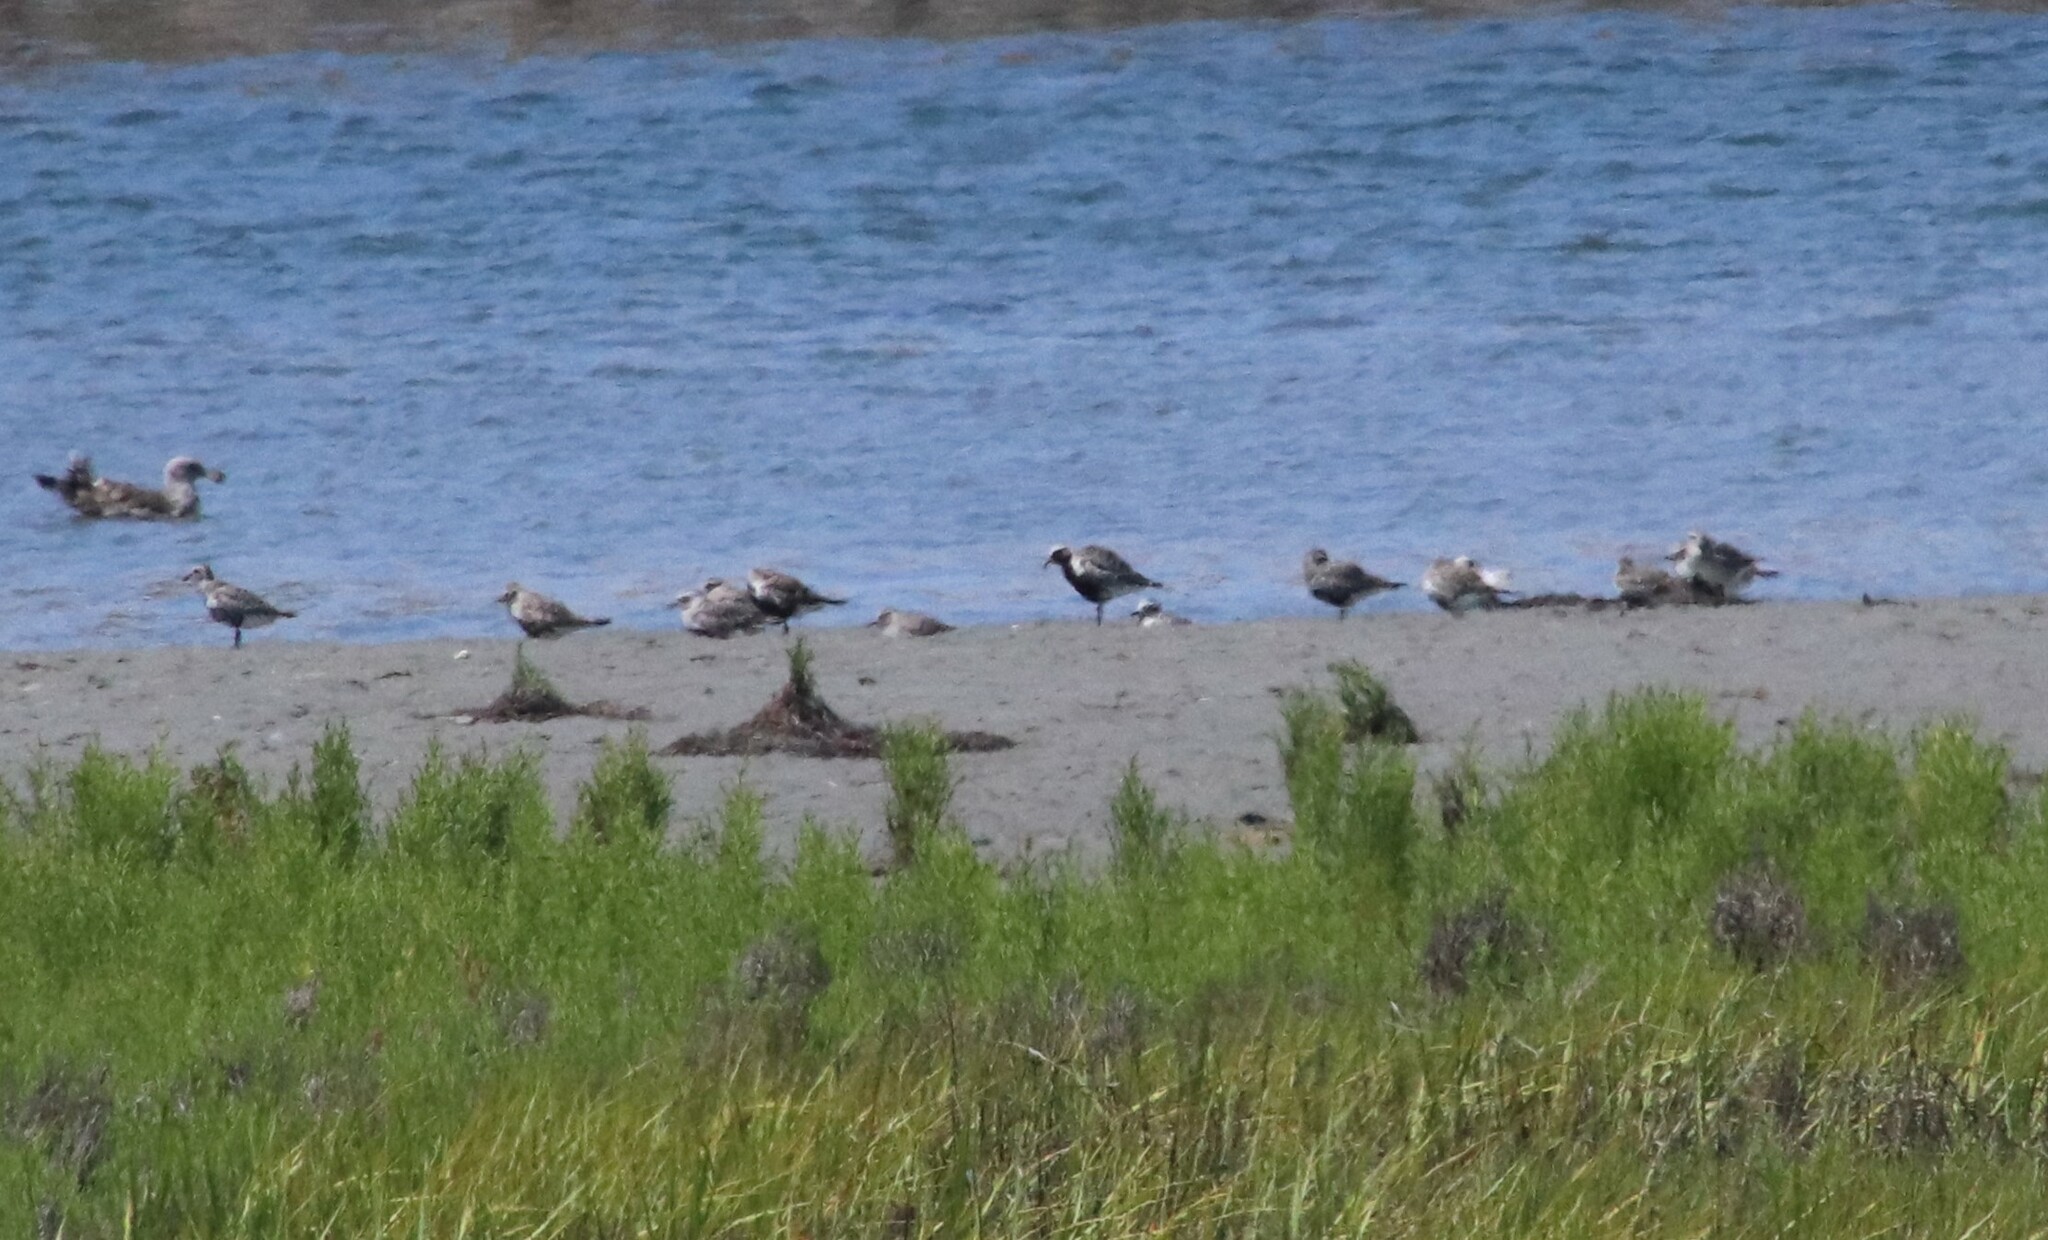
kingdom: Animalia
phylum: Chordata
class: Aves
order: Charadriiformes
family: Charadriidae
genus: Pluvialis
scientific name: Pluvialis squatarola
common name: Grey plover
